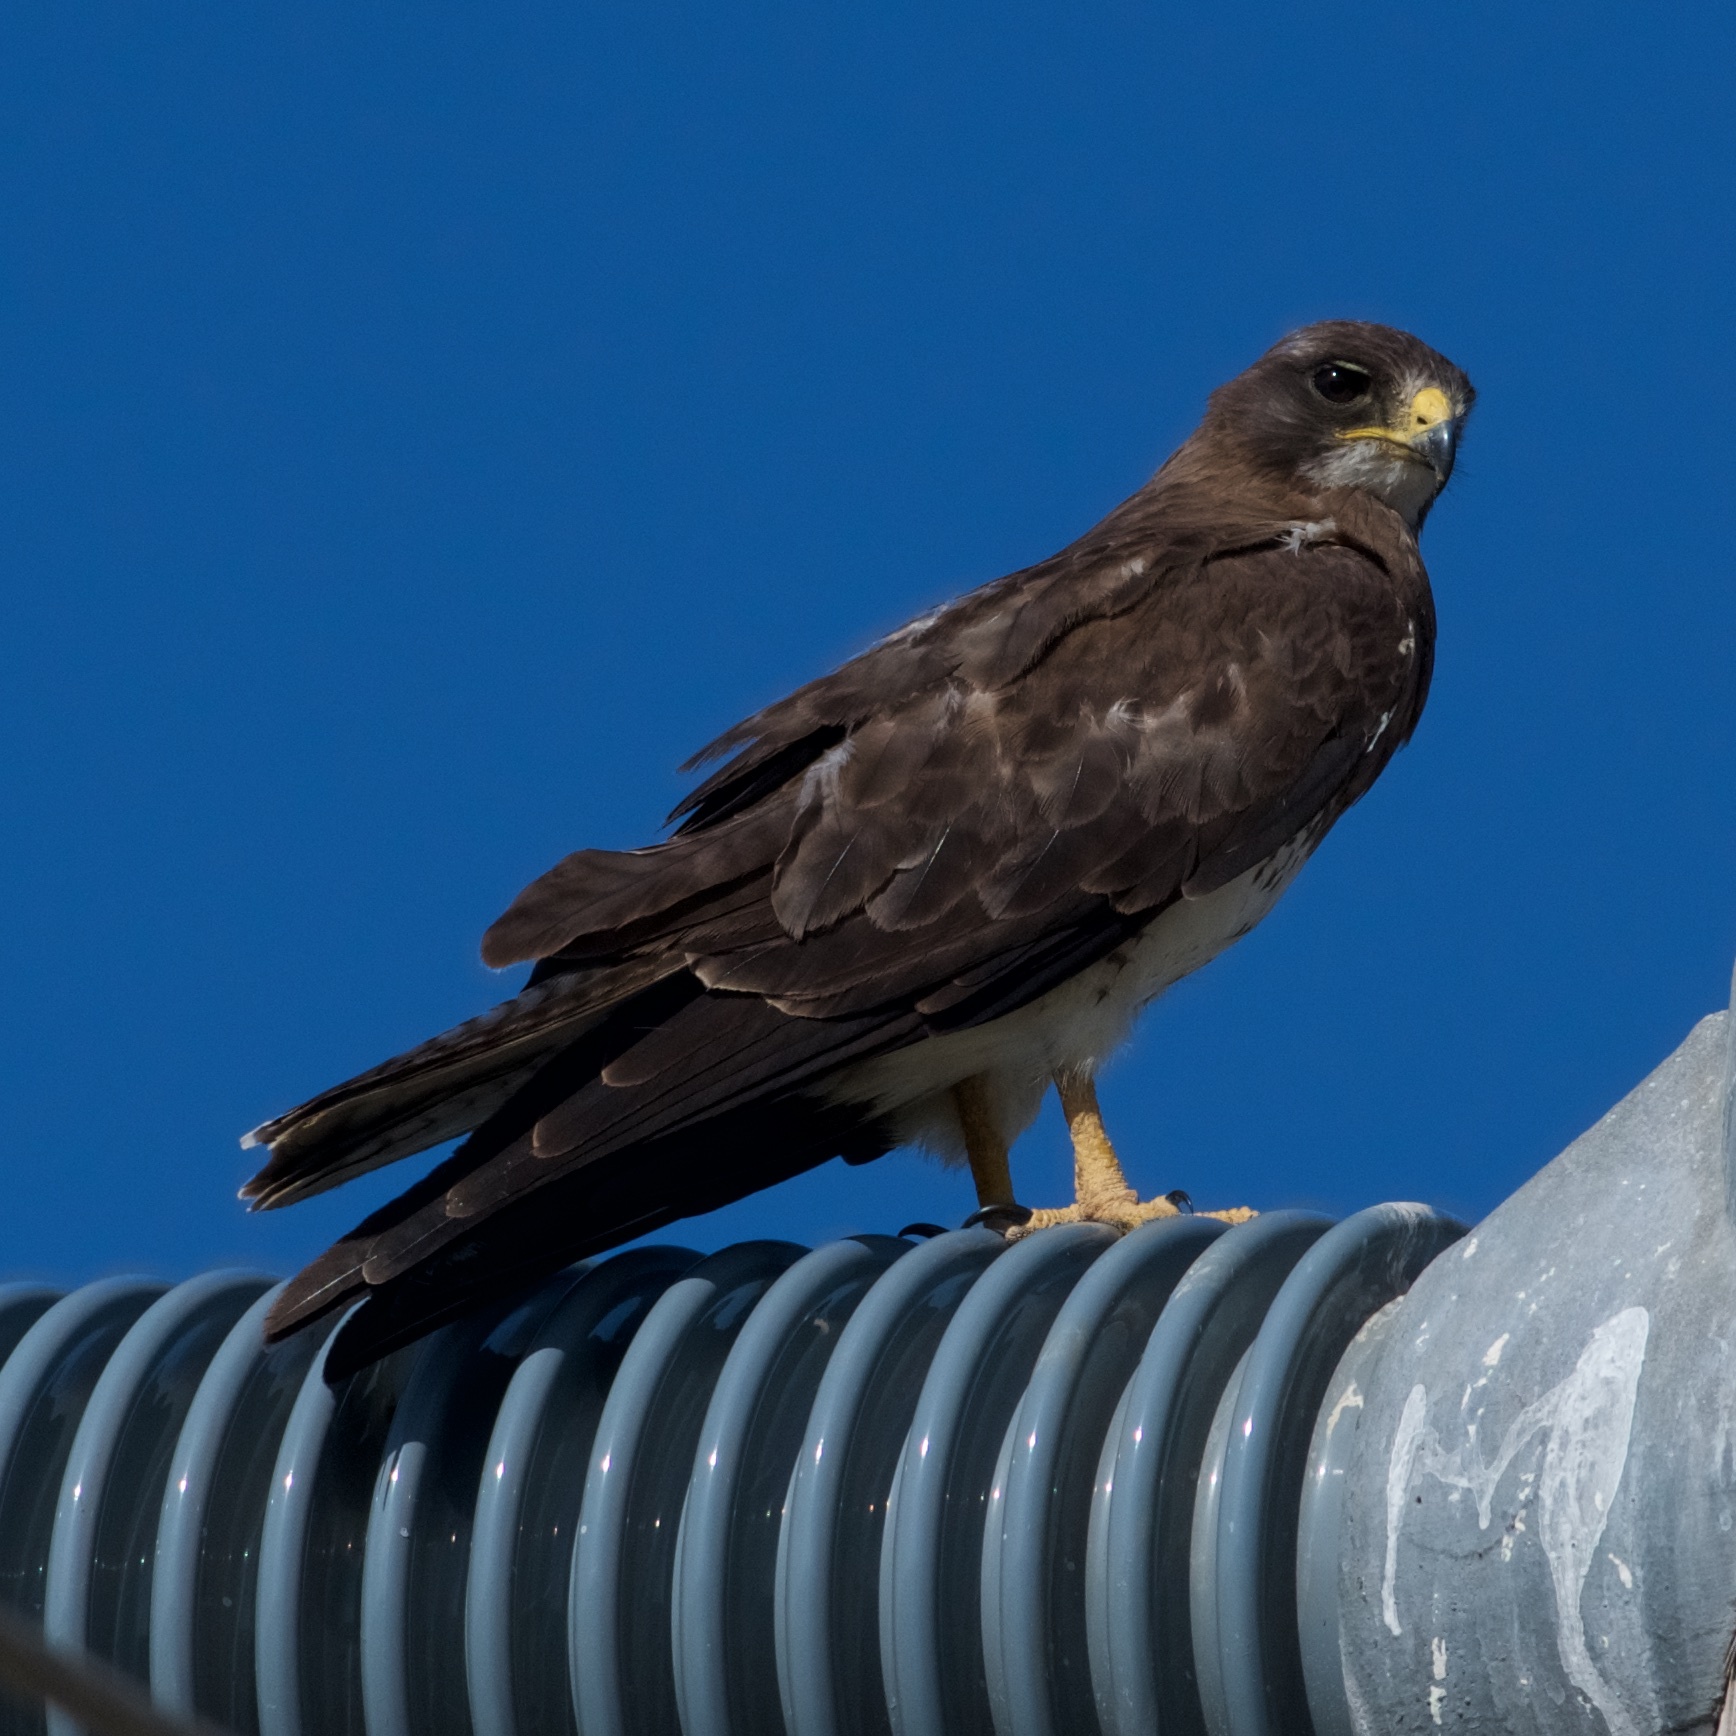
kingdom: Animalia
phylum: Chordata
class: Aves
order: Accipitriformes
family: Accipitridae
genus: Buteo
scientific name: Buteo swainsoni
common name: Swainson's hawk
